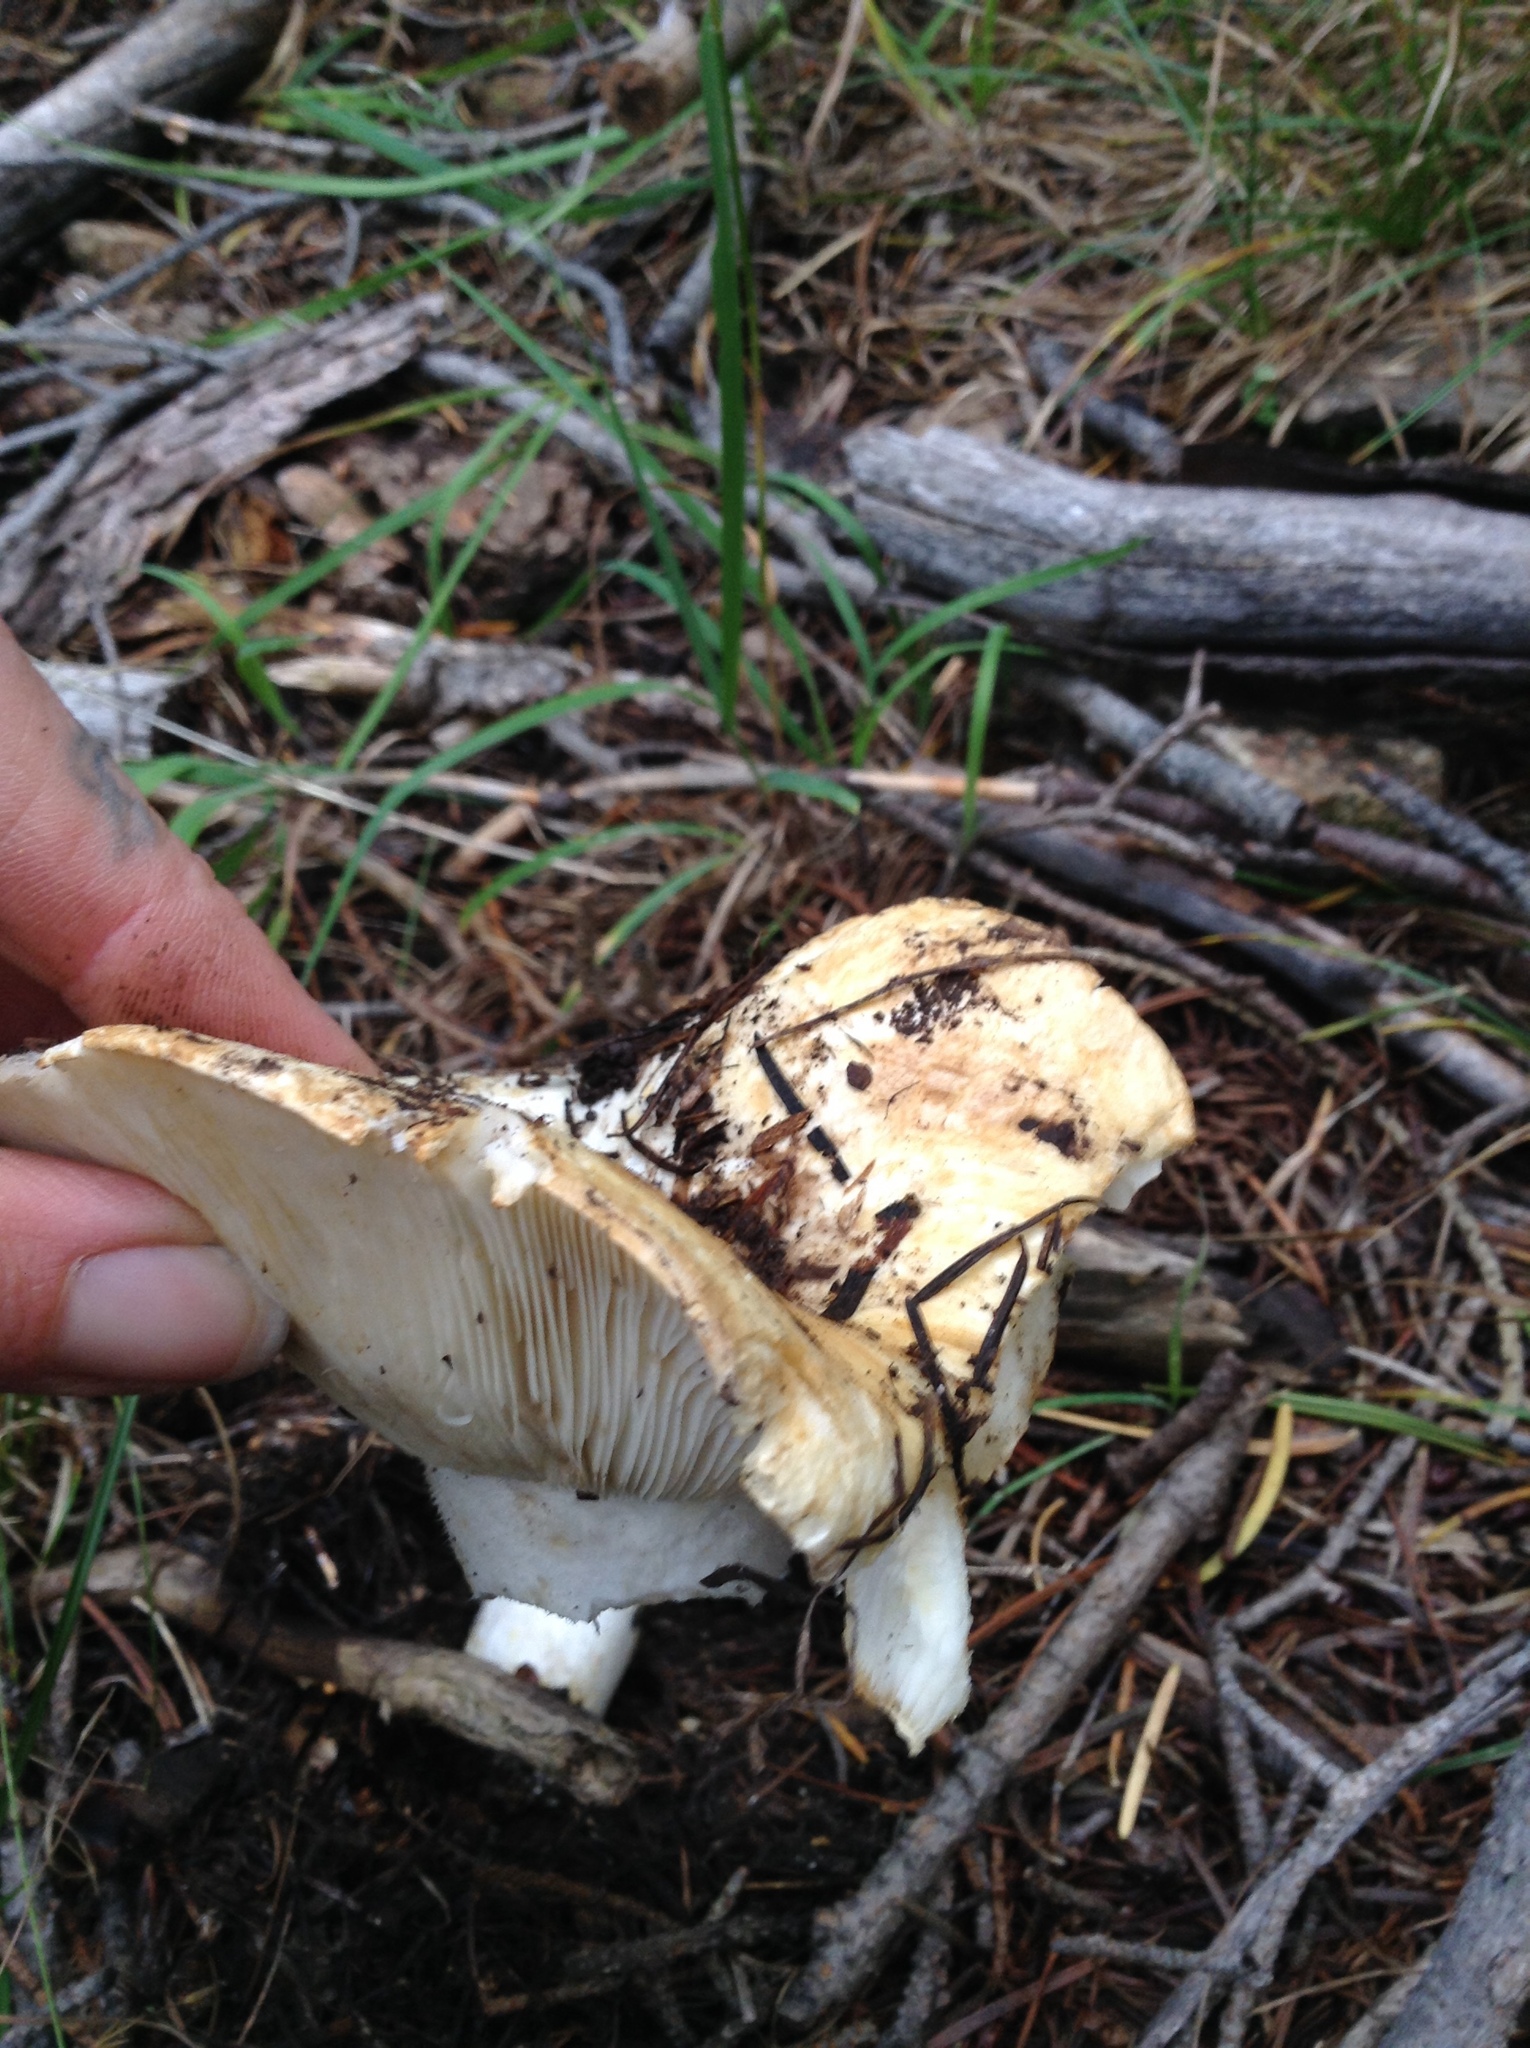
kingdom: Fungi
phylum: Basidiomycota
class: Agaricomycetes
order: Russulales
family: Russulaceae
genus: Russula
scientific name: Russula brevipes
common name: Short-stemmed russula
